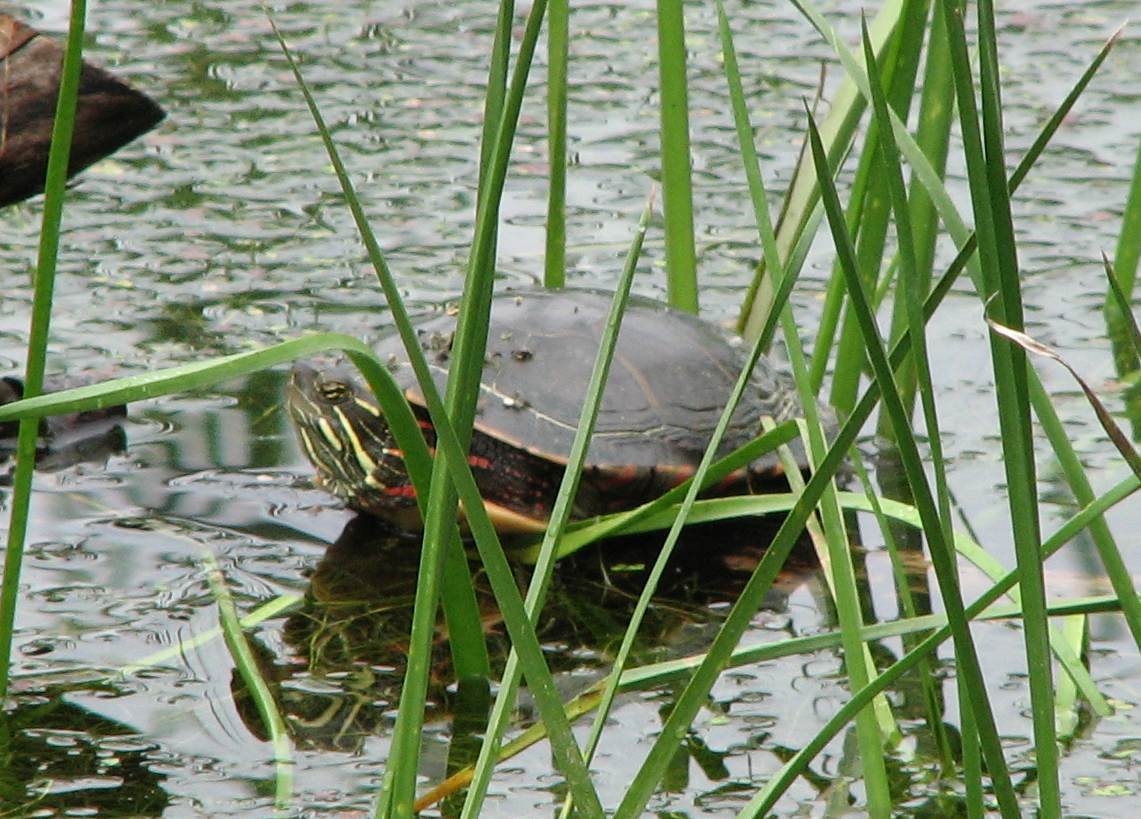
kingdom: Animalia
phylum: Chordata
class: Testudines
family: Emydidae
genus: Chrysemys
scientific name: Chrysemys picta
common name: Painted turtle
